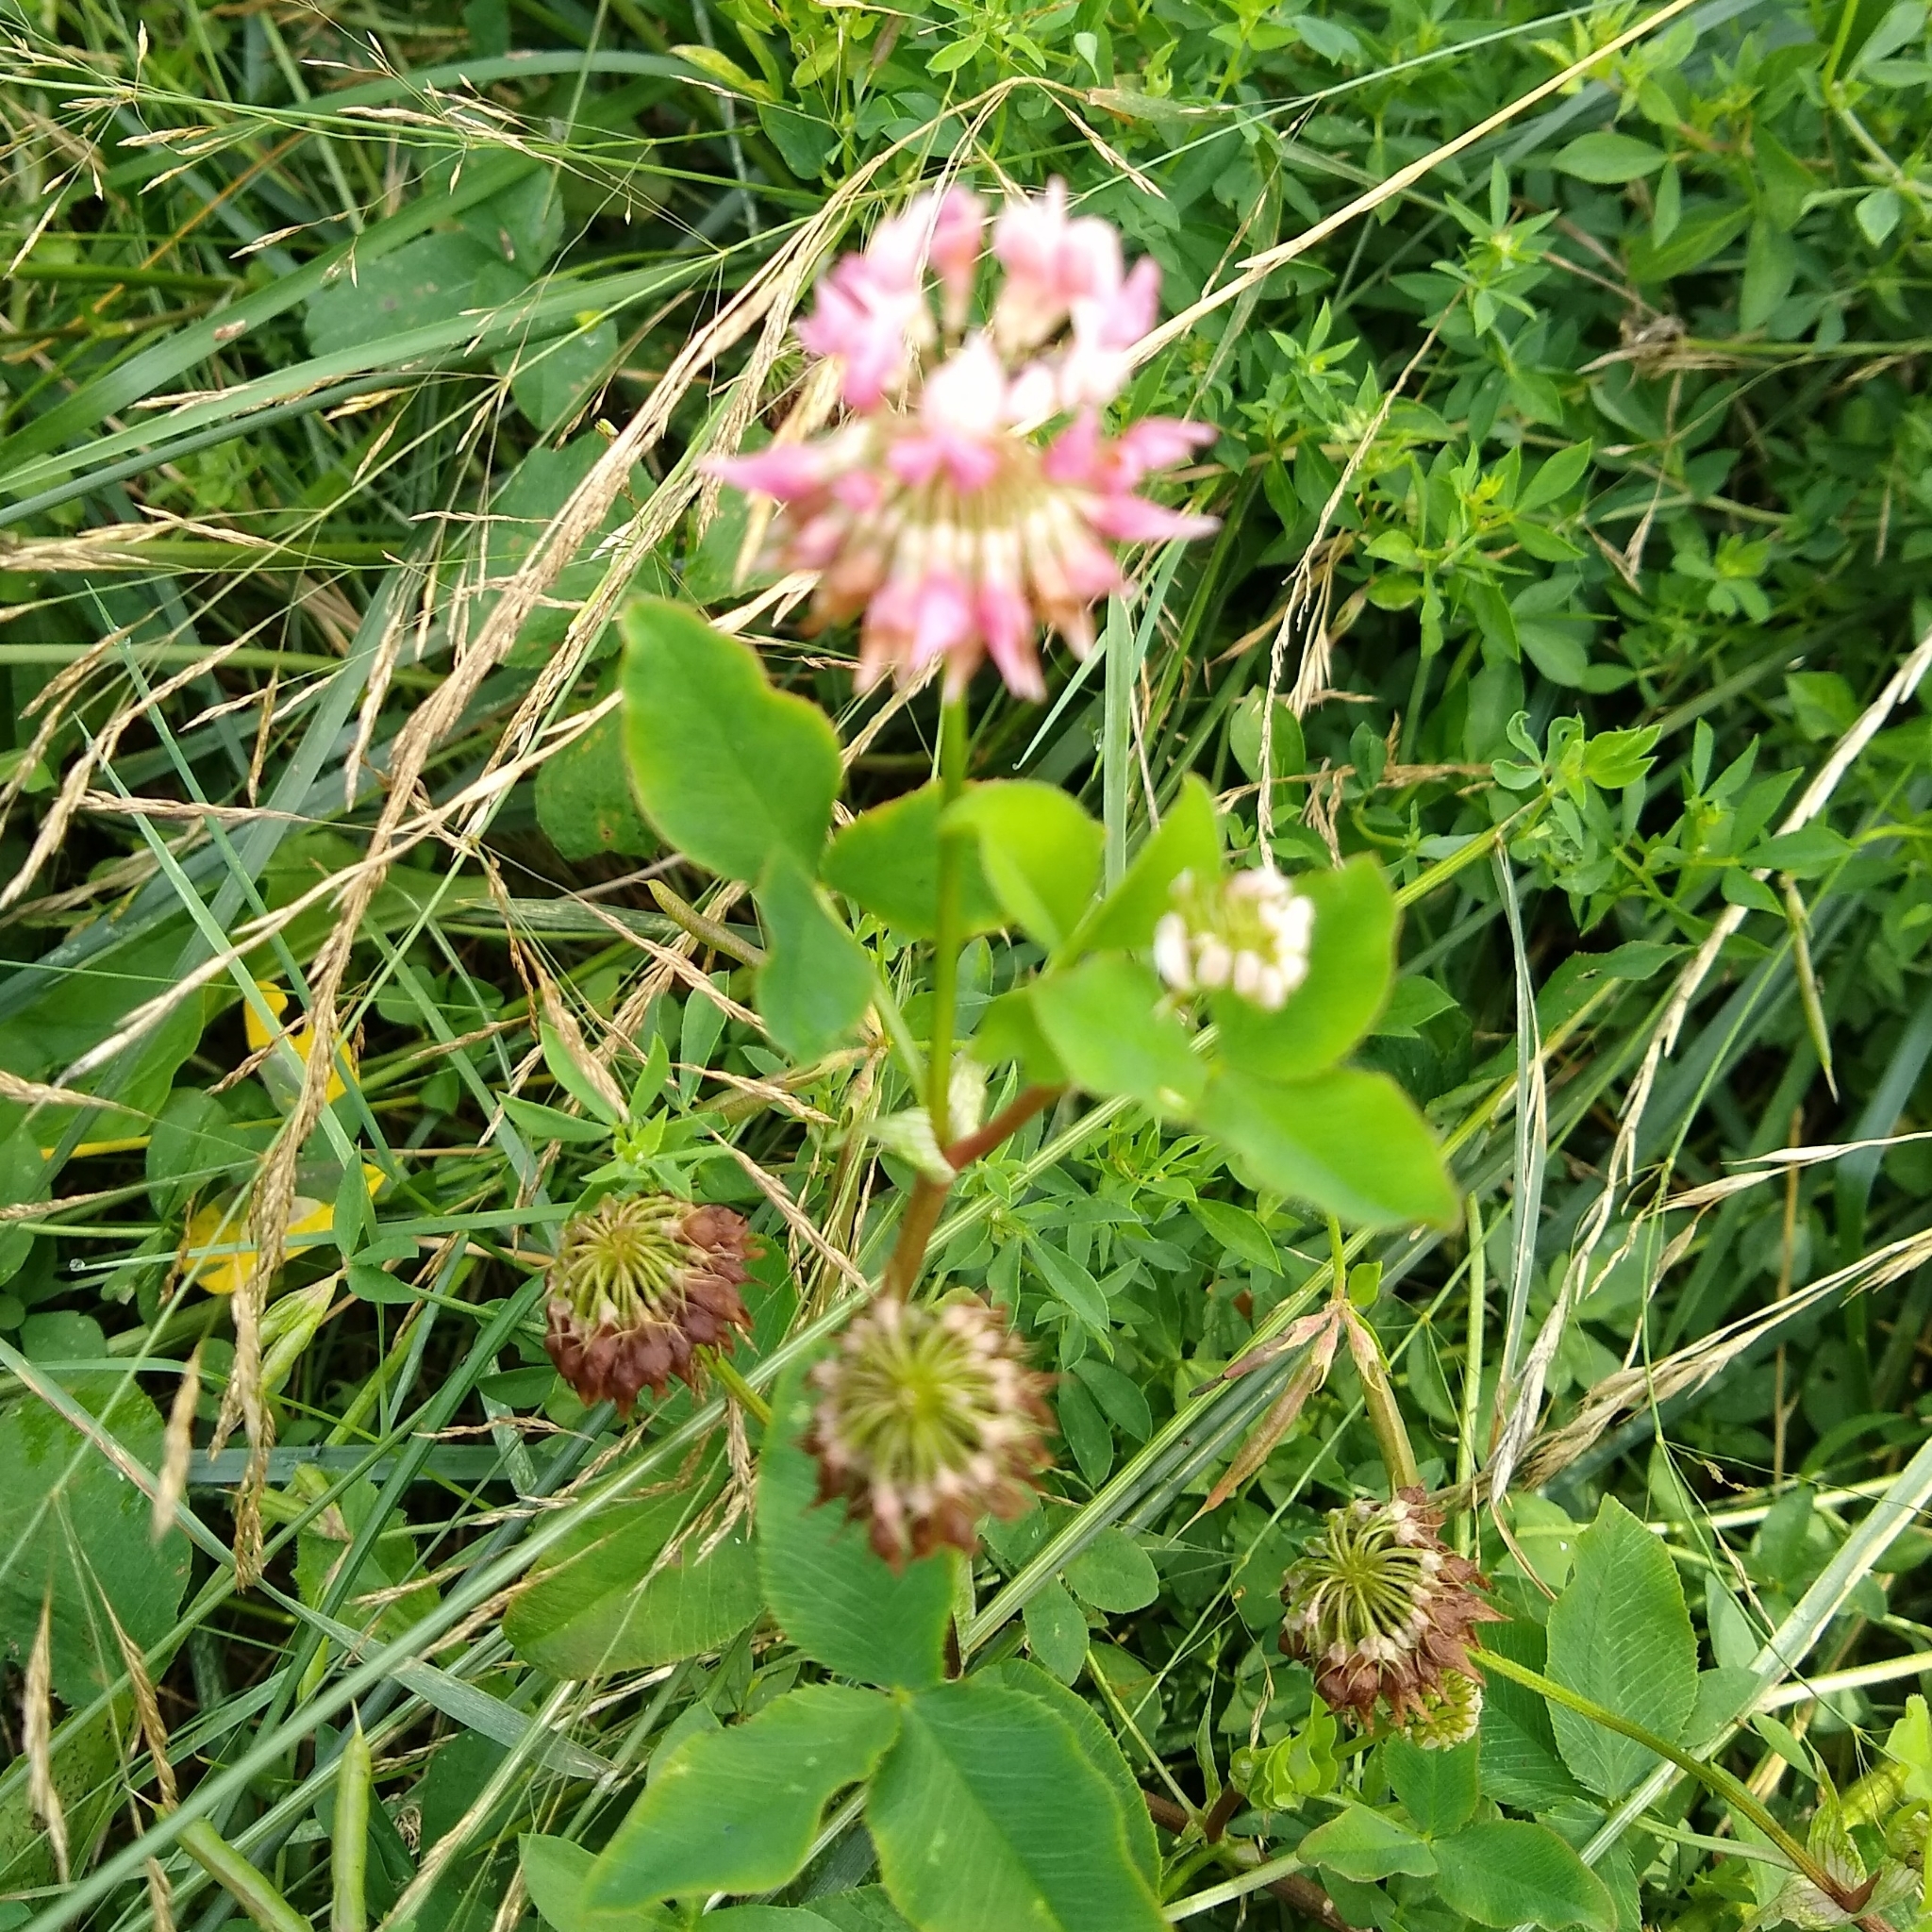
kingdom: Plantae
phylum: Tracheophyta
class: Magnoliopsida
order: Fabales
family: Fabaceae
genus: Trifolium
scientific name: Trifolium hybridum
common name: Alsike clover
